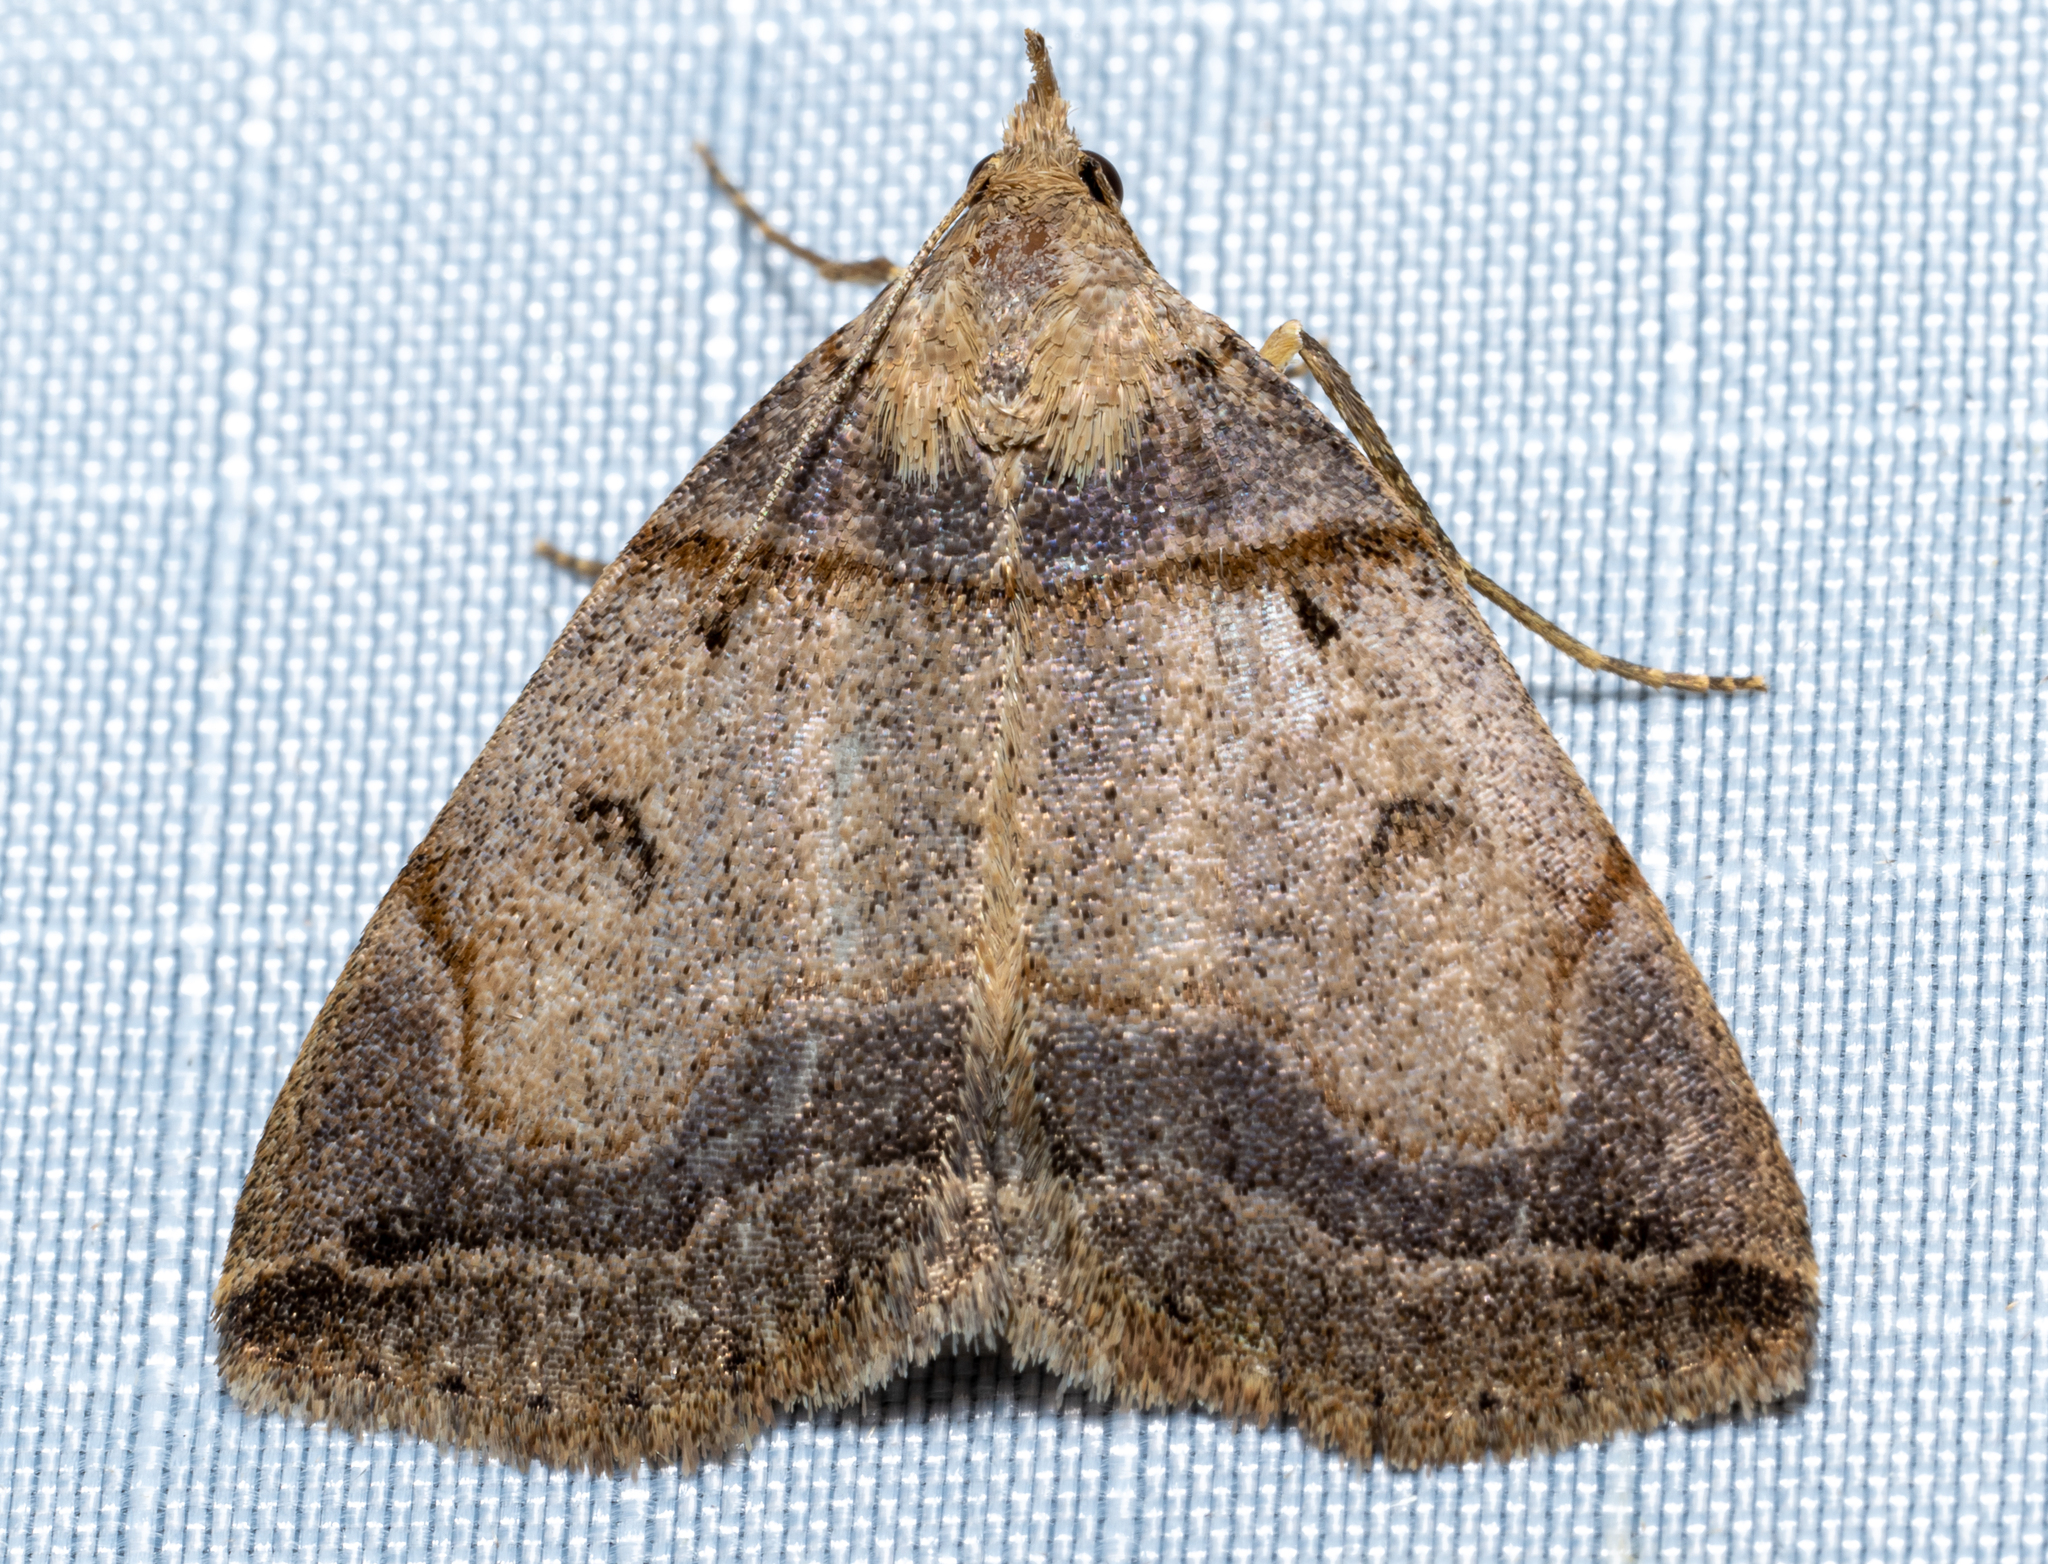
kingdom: Animalia
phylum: Arthropoda
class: Insecta
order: Lepidoptera
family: Erebidae
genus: Zanclognatha
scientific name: Zanclognatha laevigata
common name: Variable fan-foot
